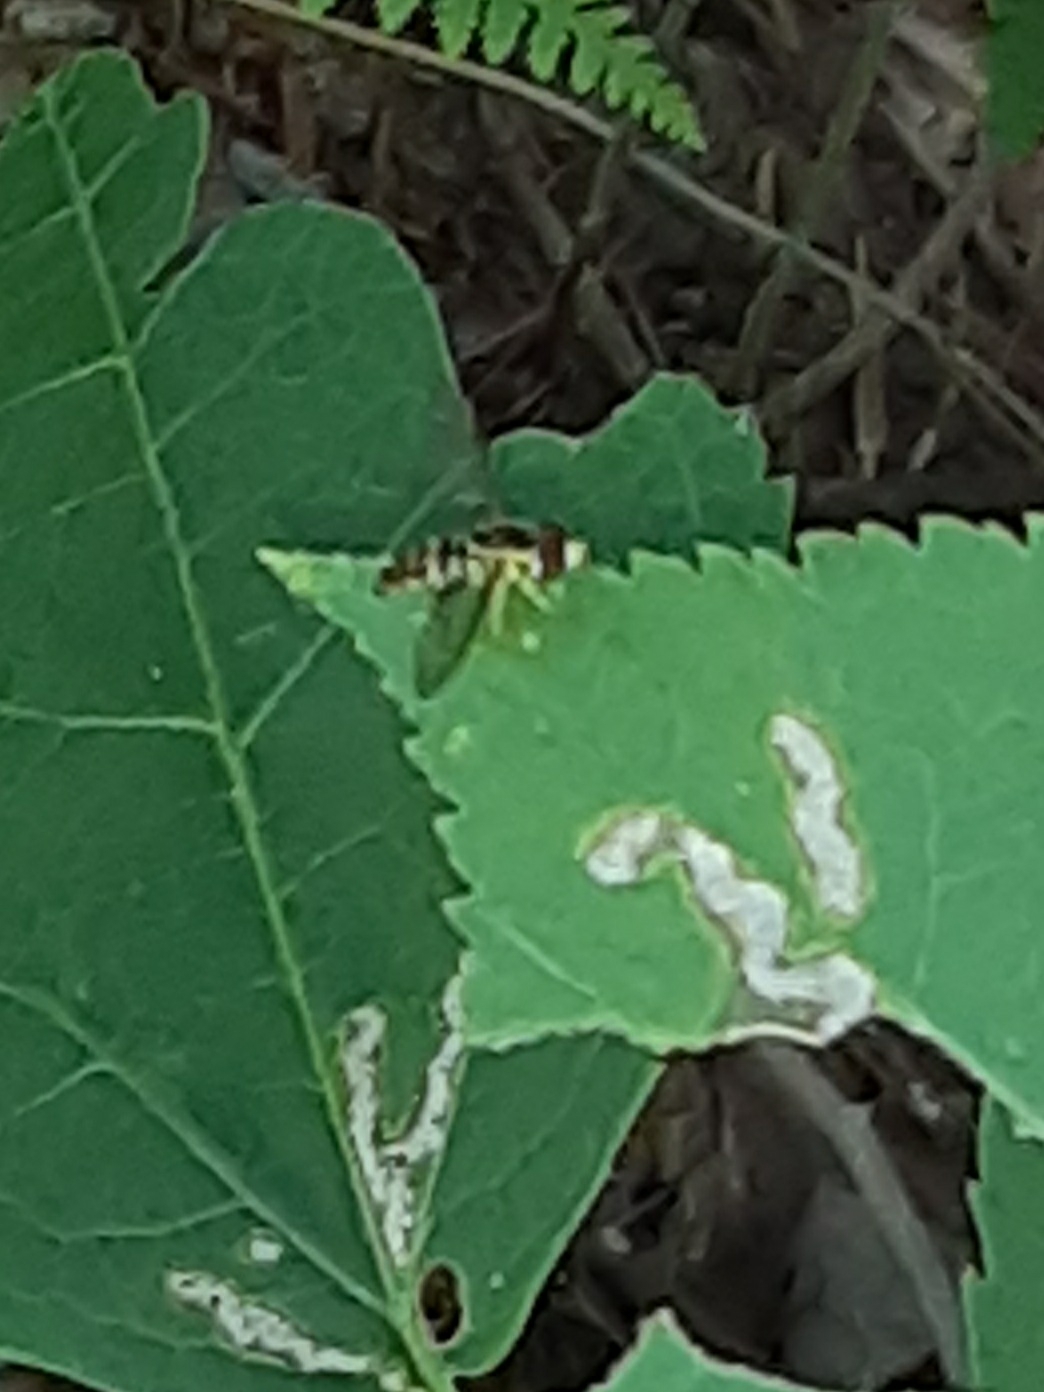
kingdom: Animalia
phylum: Arthropoda
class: Insecta
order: Diptera
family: Syrphidae
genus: Toxomerus
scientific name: Toxomerus geminatus
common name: Eastern calligrapher
